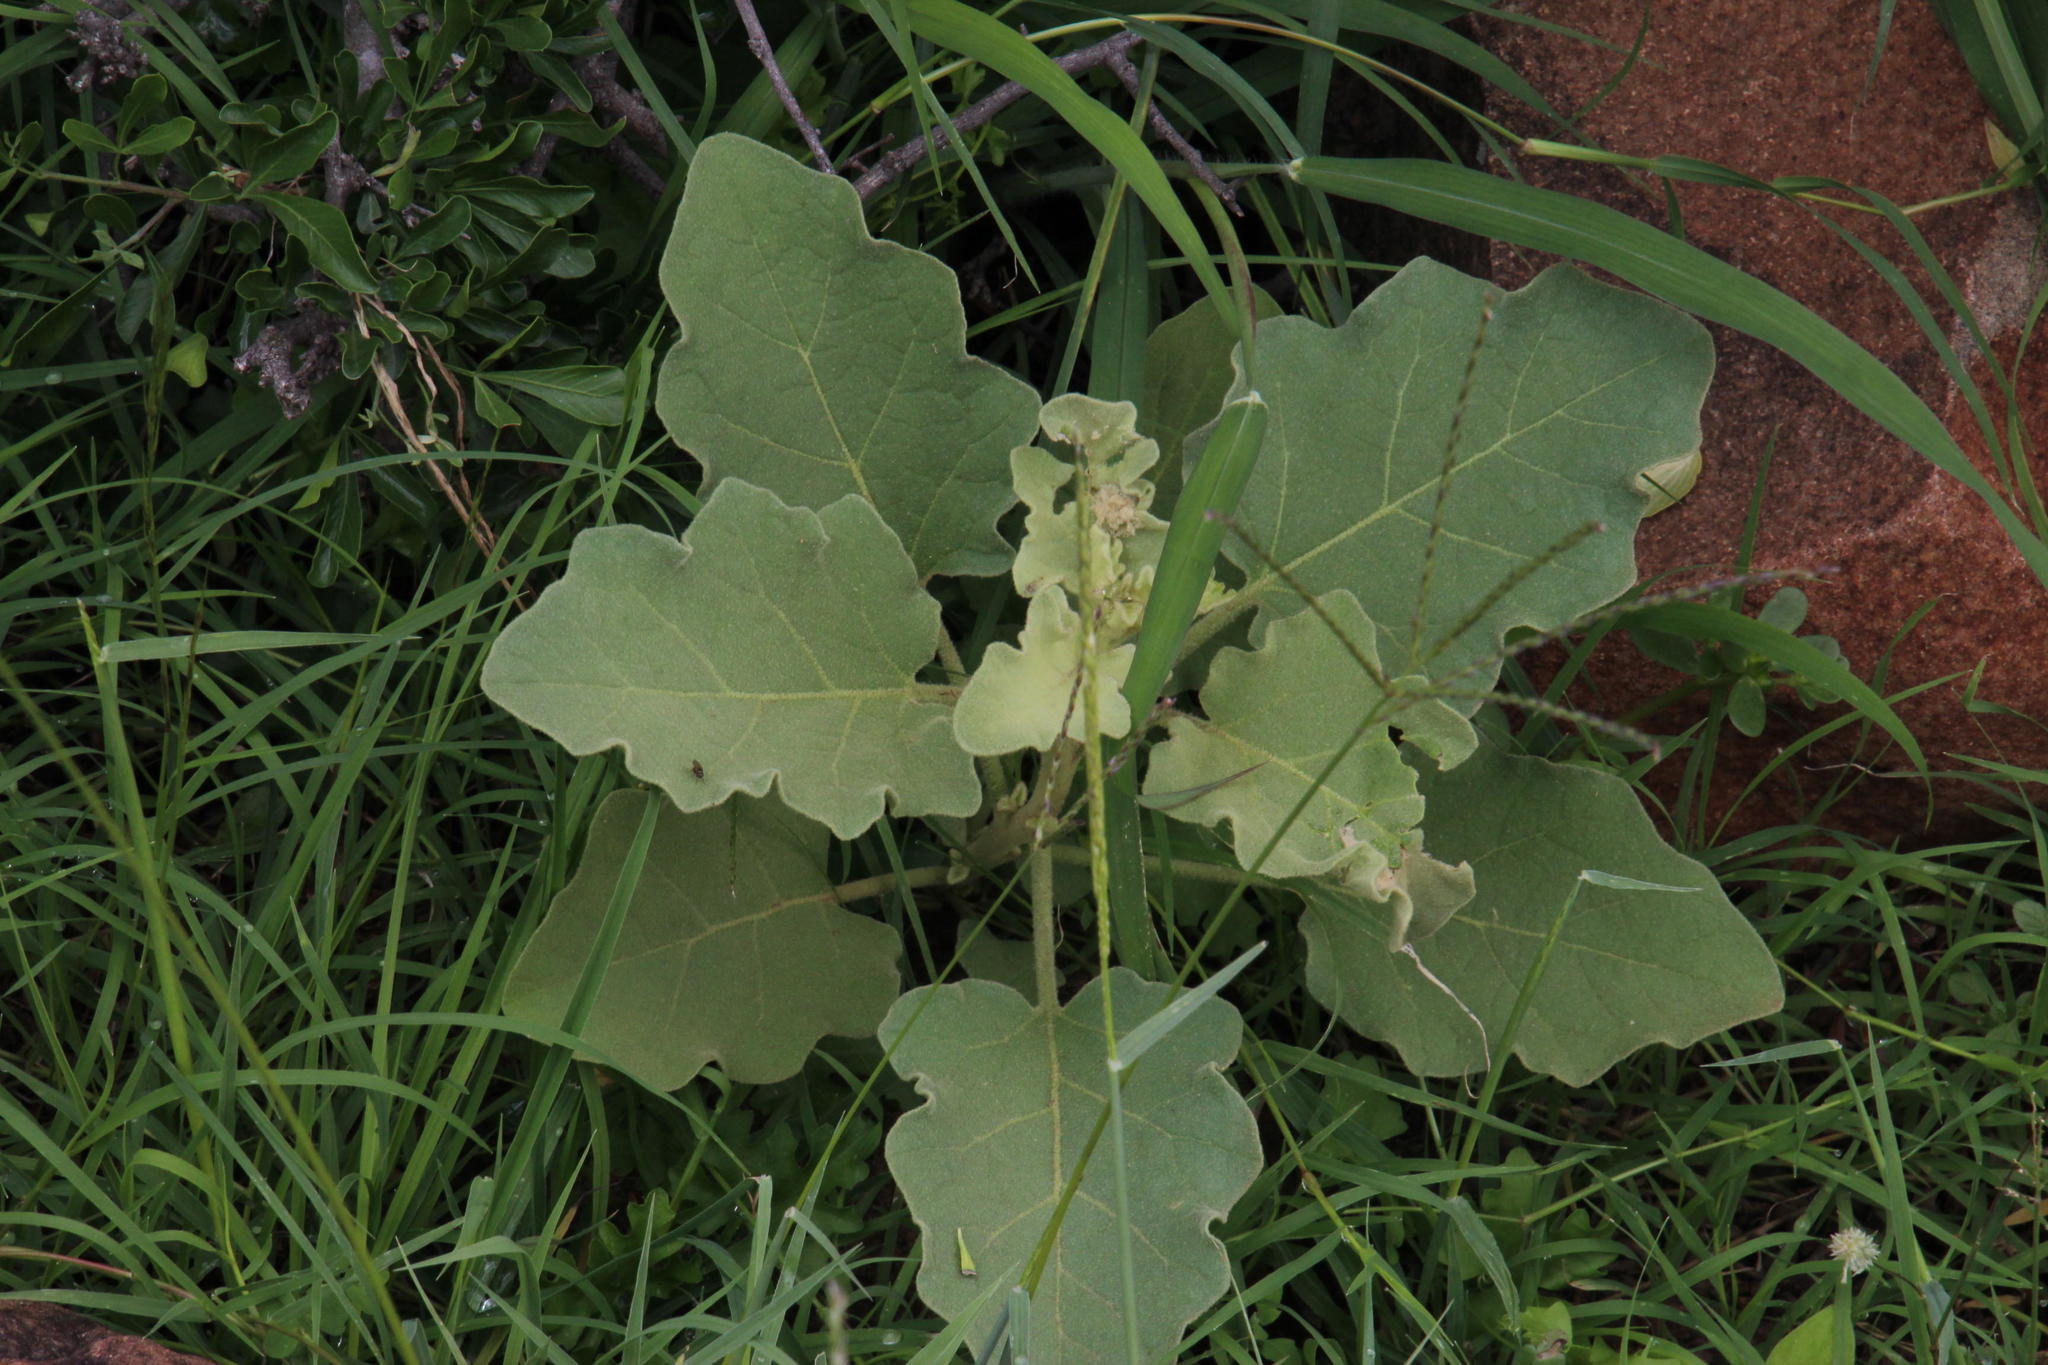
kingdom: Plantae
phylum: Tracheophyta
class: Magnoliopsida
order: Solanales
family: Solanaceae
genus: Solanum
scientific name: Solanum tomentosum
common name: Wild aubergine
